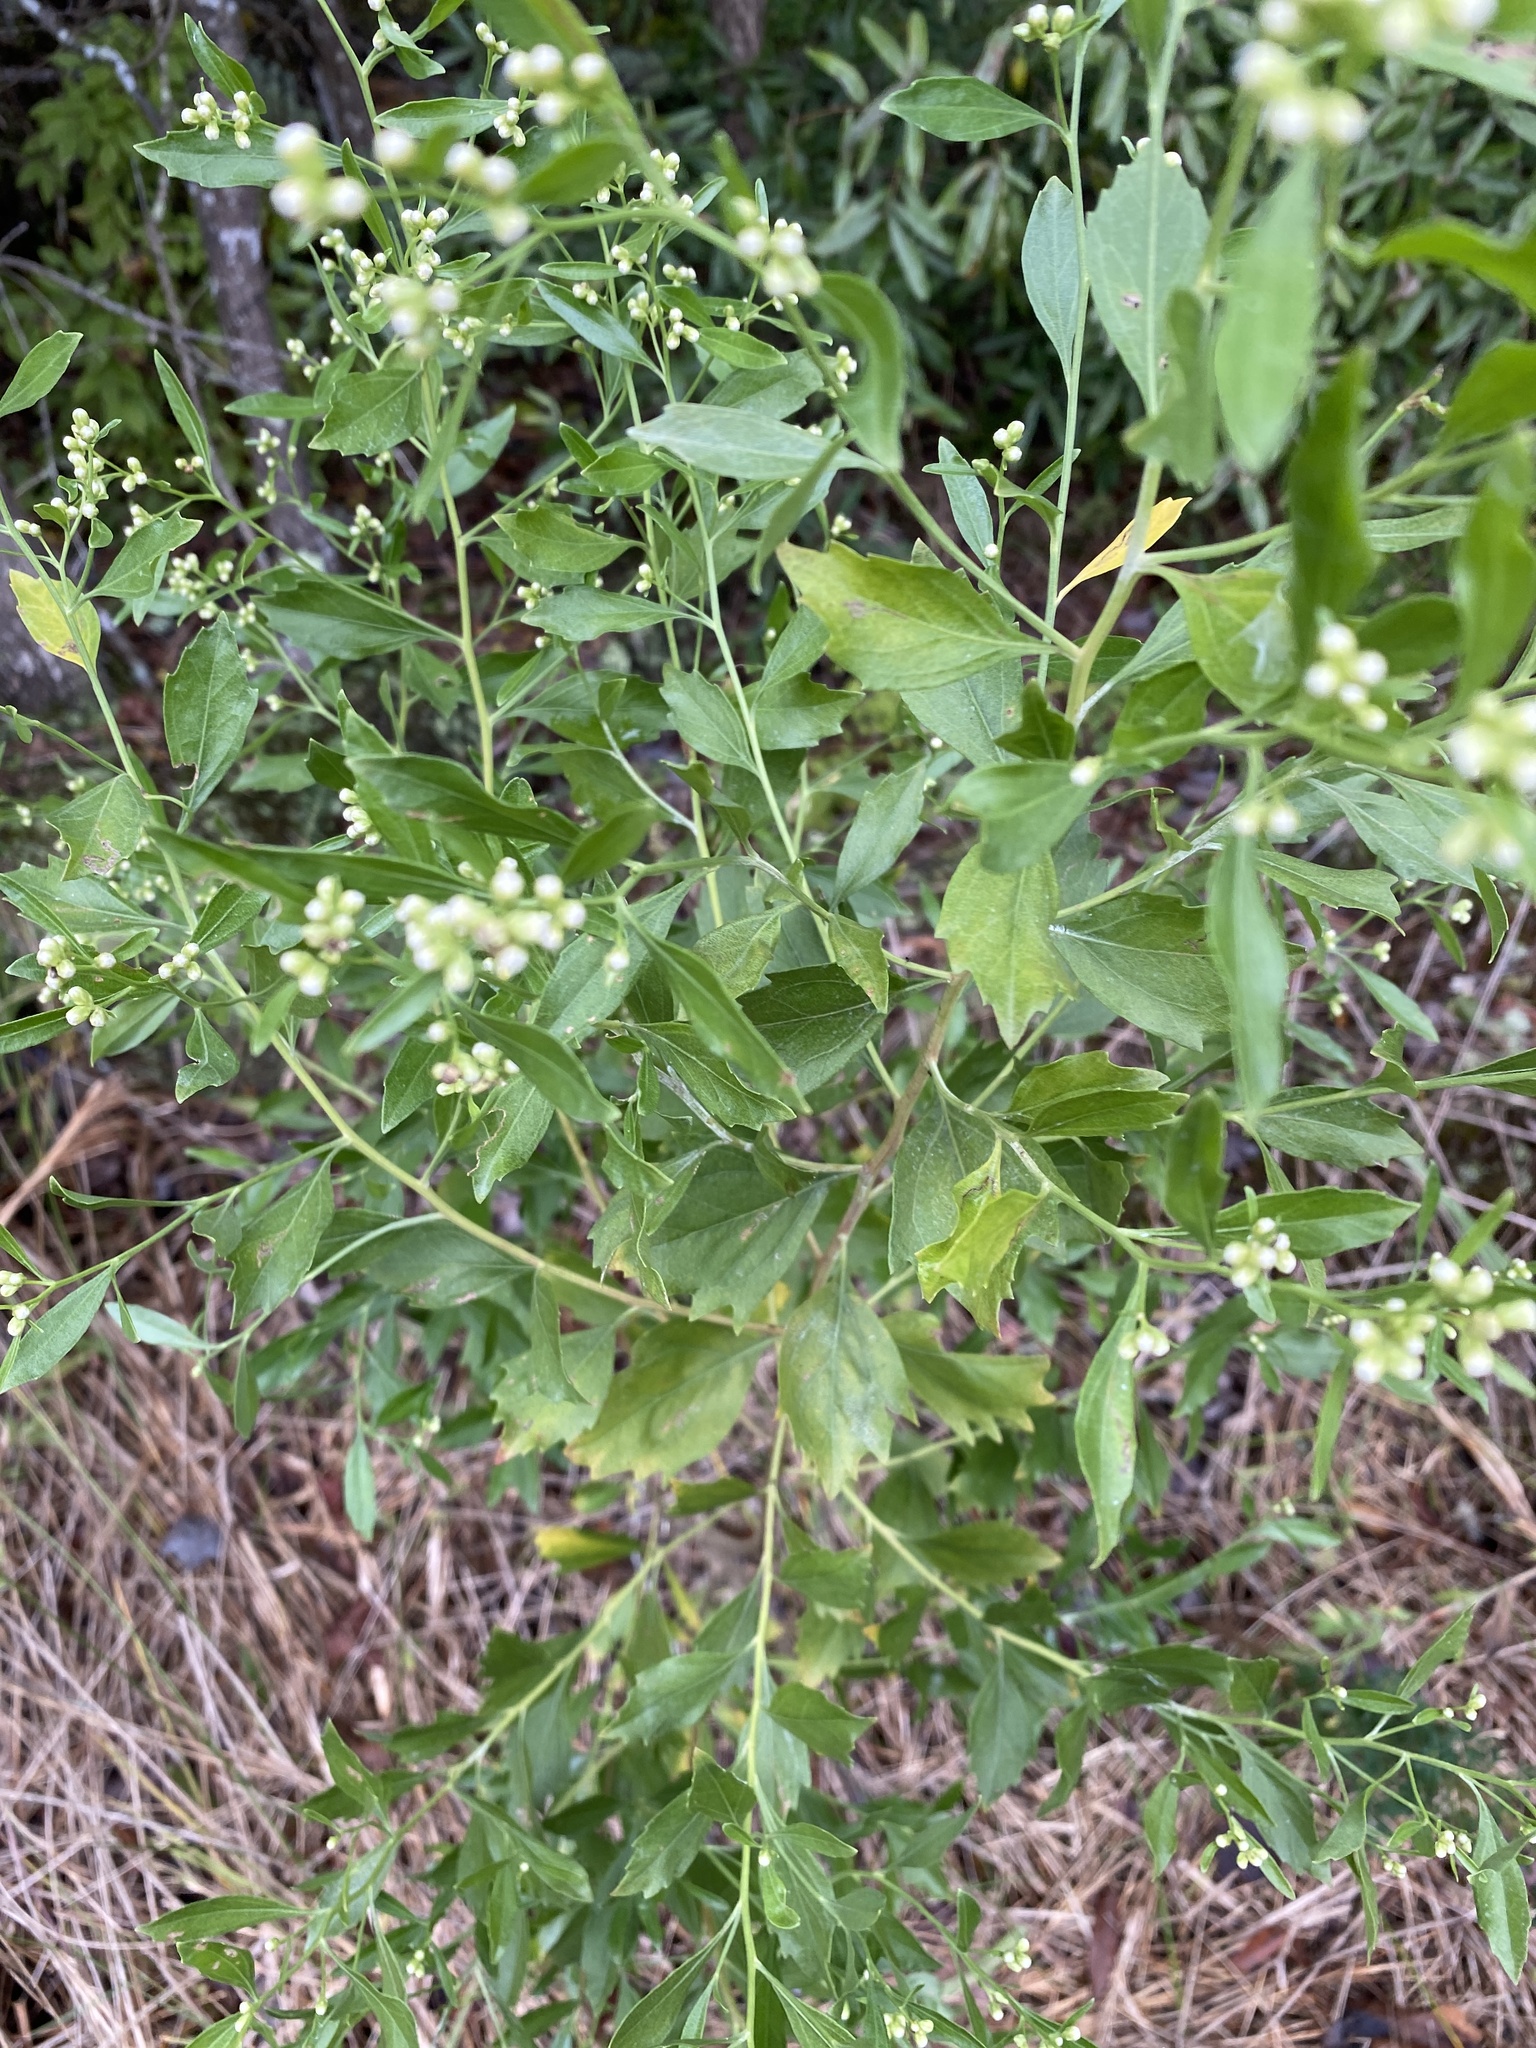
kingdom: Plantae
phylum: Tracheophyta
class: Magnoliopsida
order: Asterales
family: Asteraceae
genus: Baccharis
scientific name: Baccharis halimifolia
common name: Eastern baccharis
